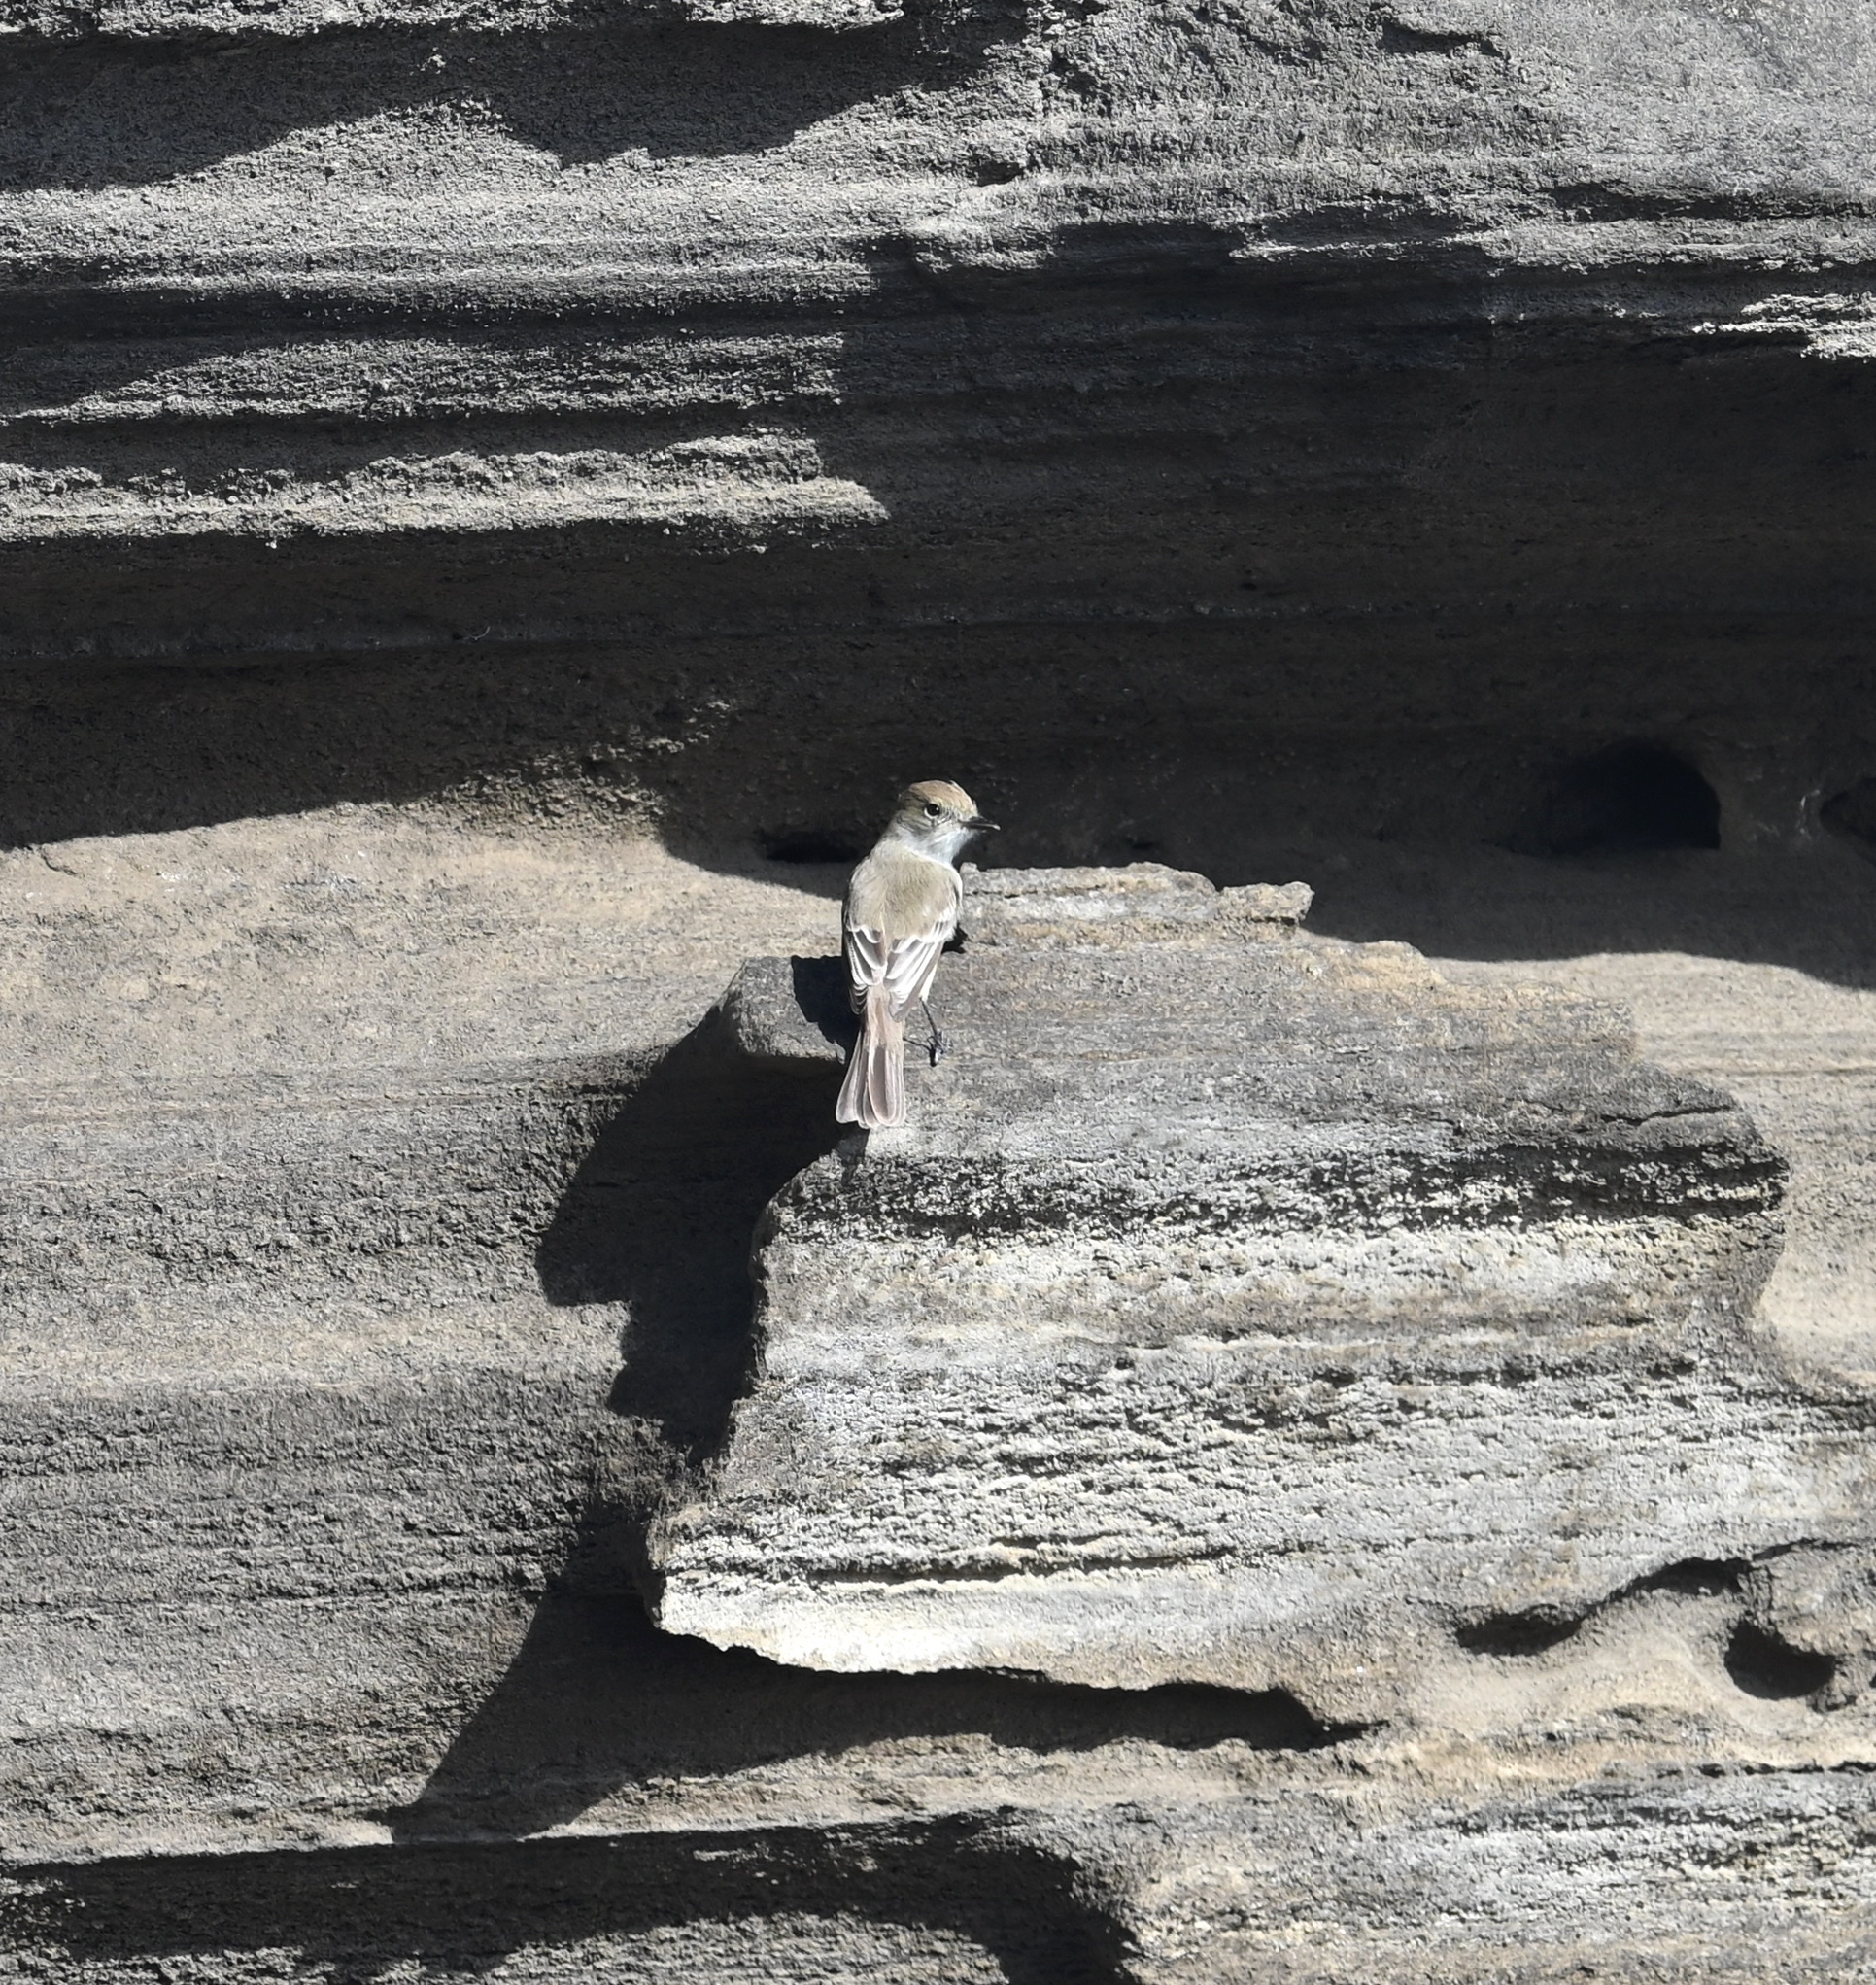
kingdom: Animalia
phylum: Chordata
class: Aves
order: Passeriformes
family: Tyrannidae
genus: Myiarchus
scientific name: Myiarchus magnirostris
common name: Galapagos flycatcher
